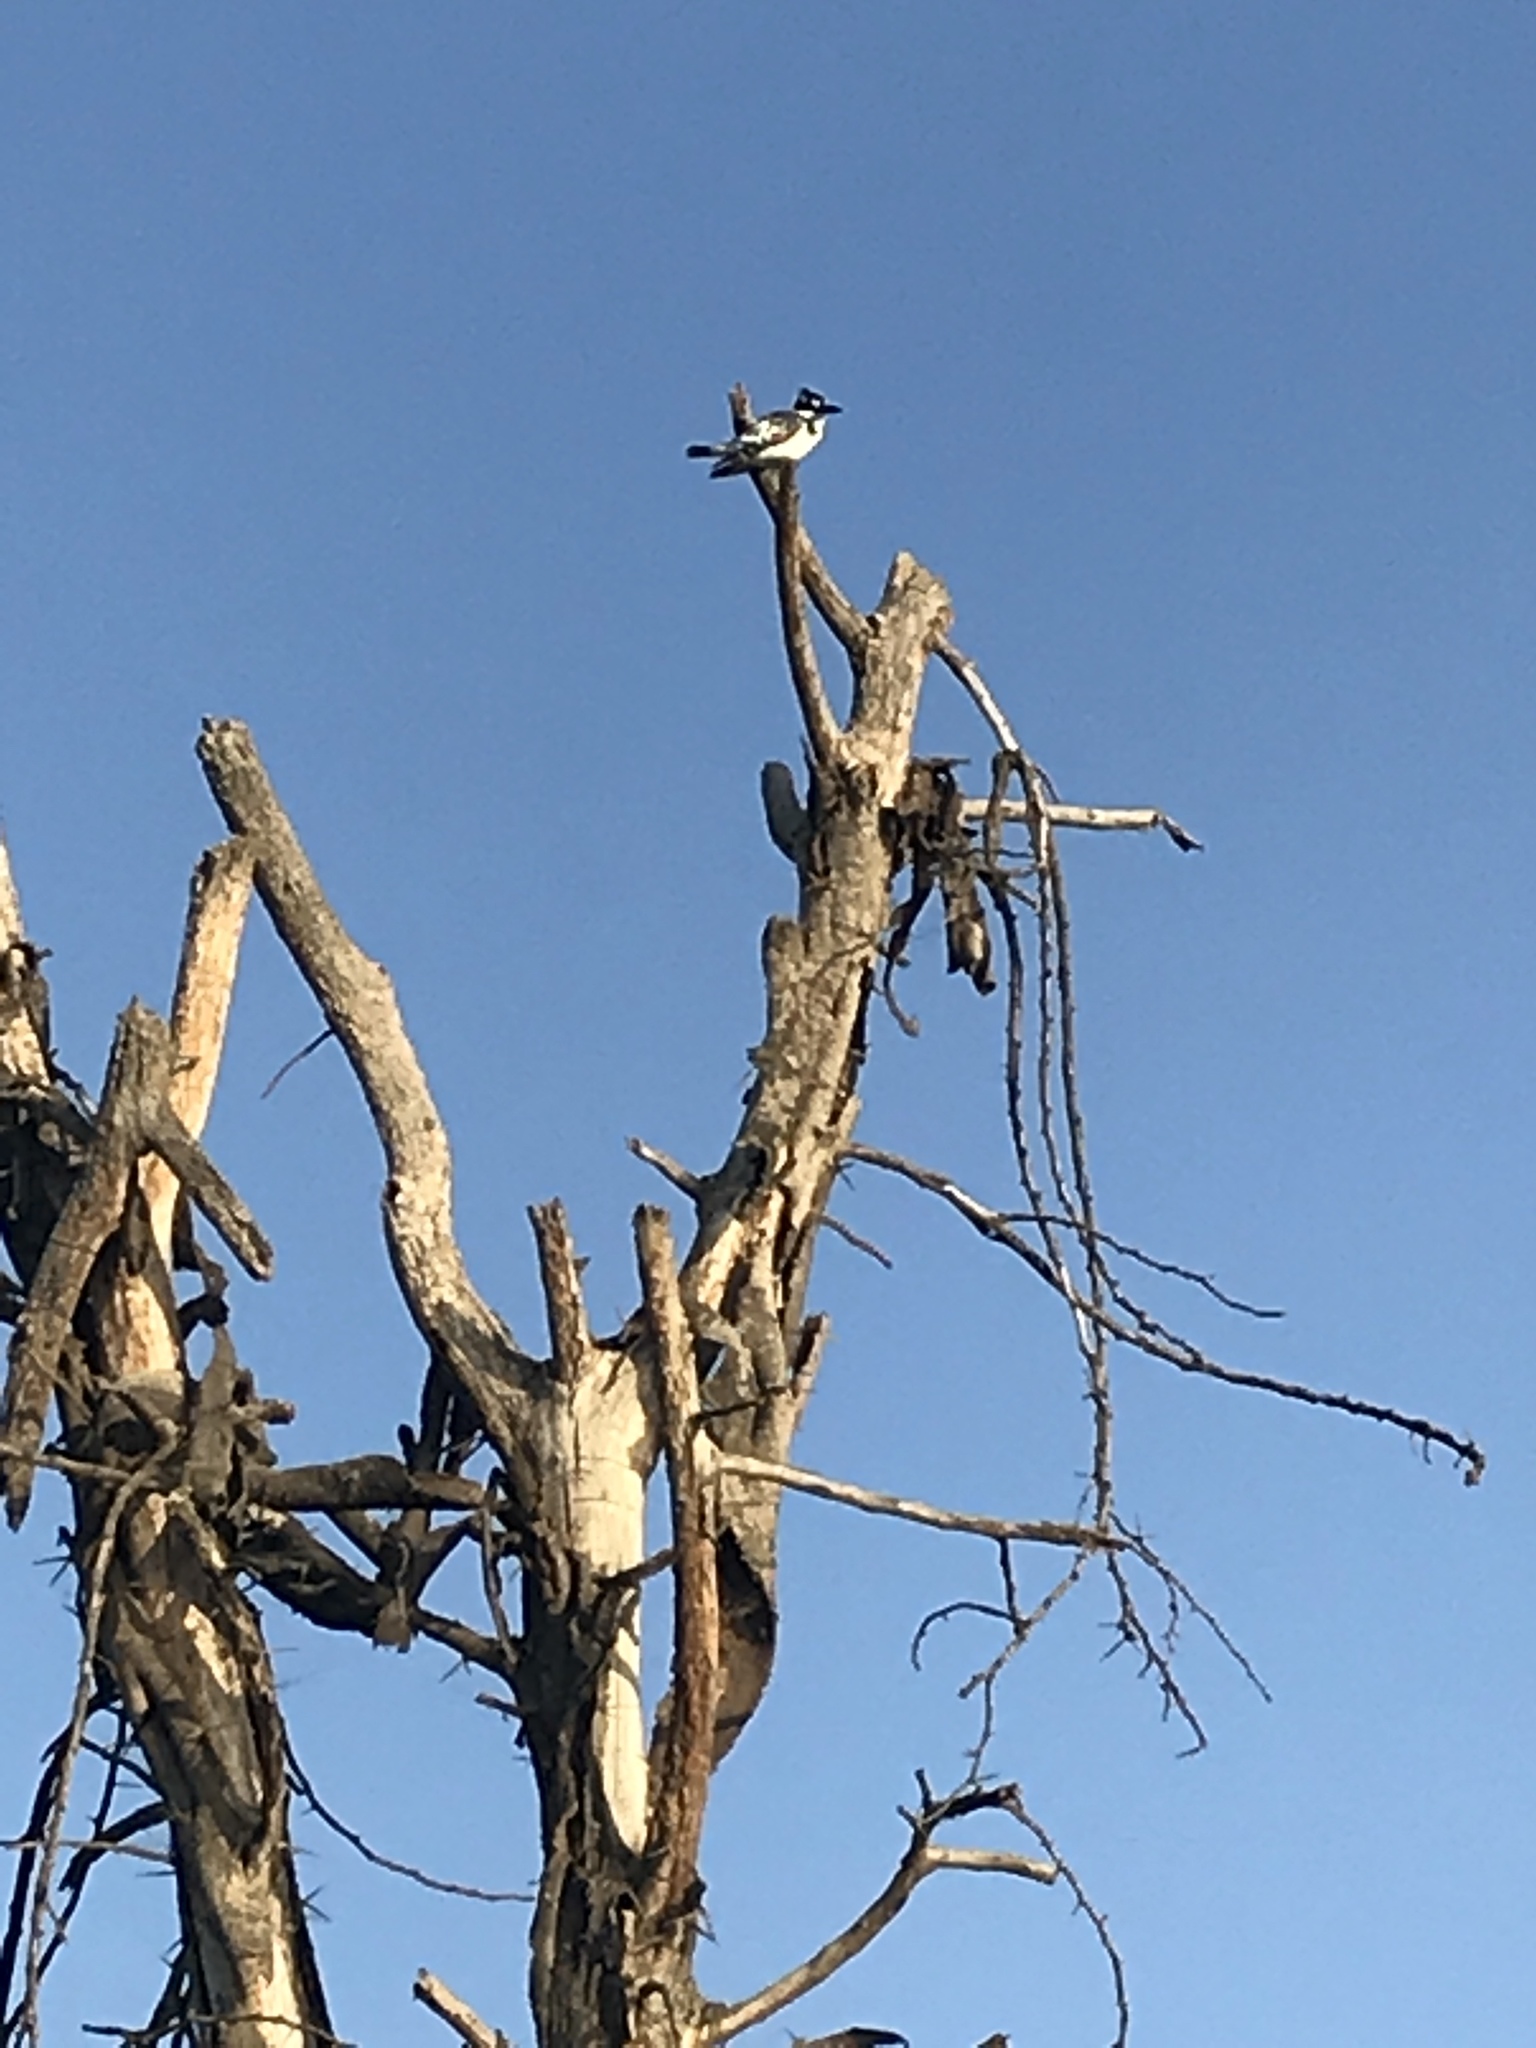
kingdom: Animalia
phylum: Chordata
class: Aves
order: Coraciiformes
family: Alcedinidae
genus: Ceryle
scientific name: Ceryle rudis
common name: Pied kingfisher
